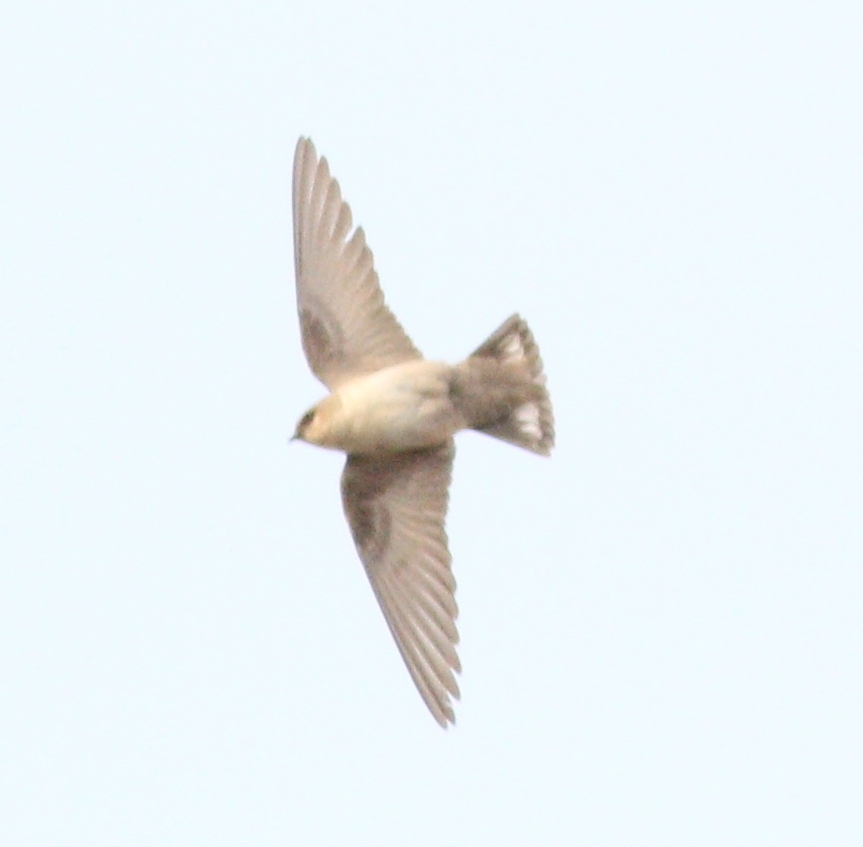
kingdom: Animalia
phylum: Chordata
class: Aves
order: Passeriformes
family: Hirundinidae
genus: Ptyonoprogne
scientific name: Ptyonoprogne fuligula
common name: Rock martin
